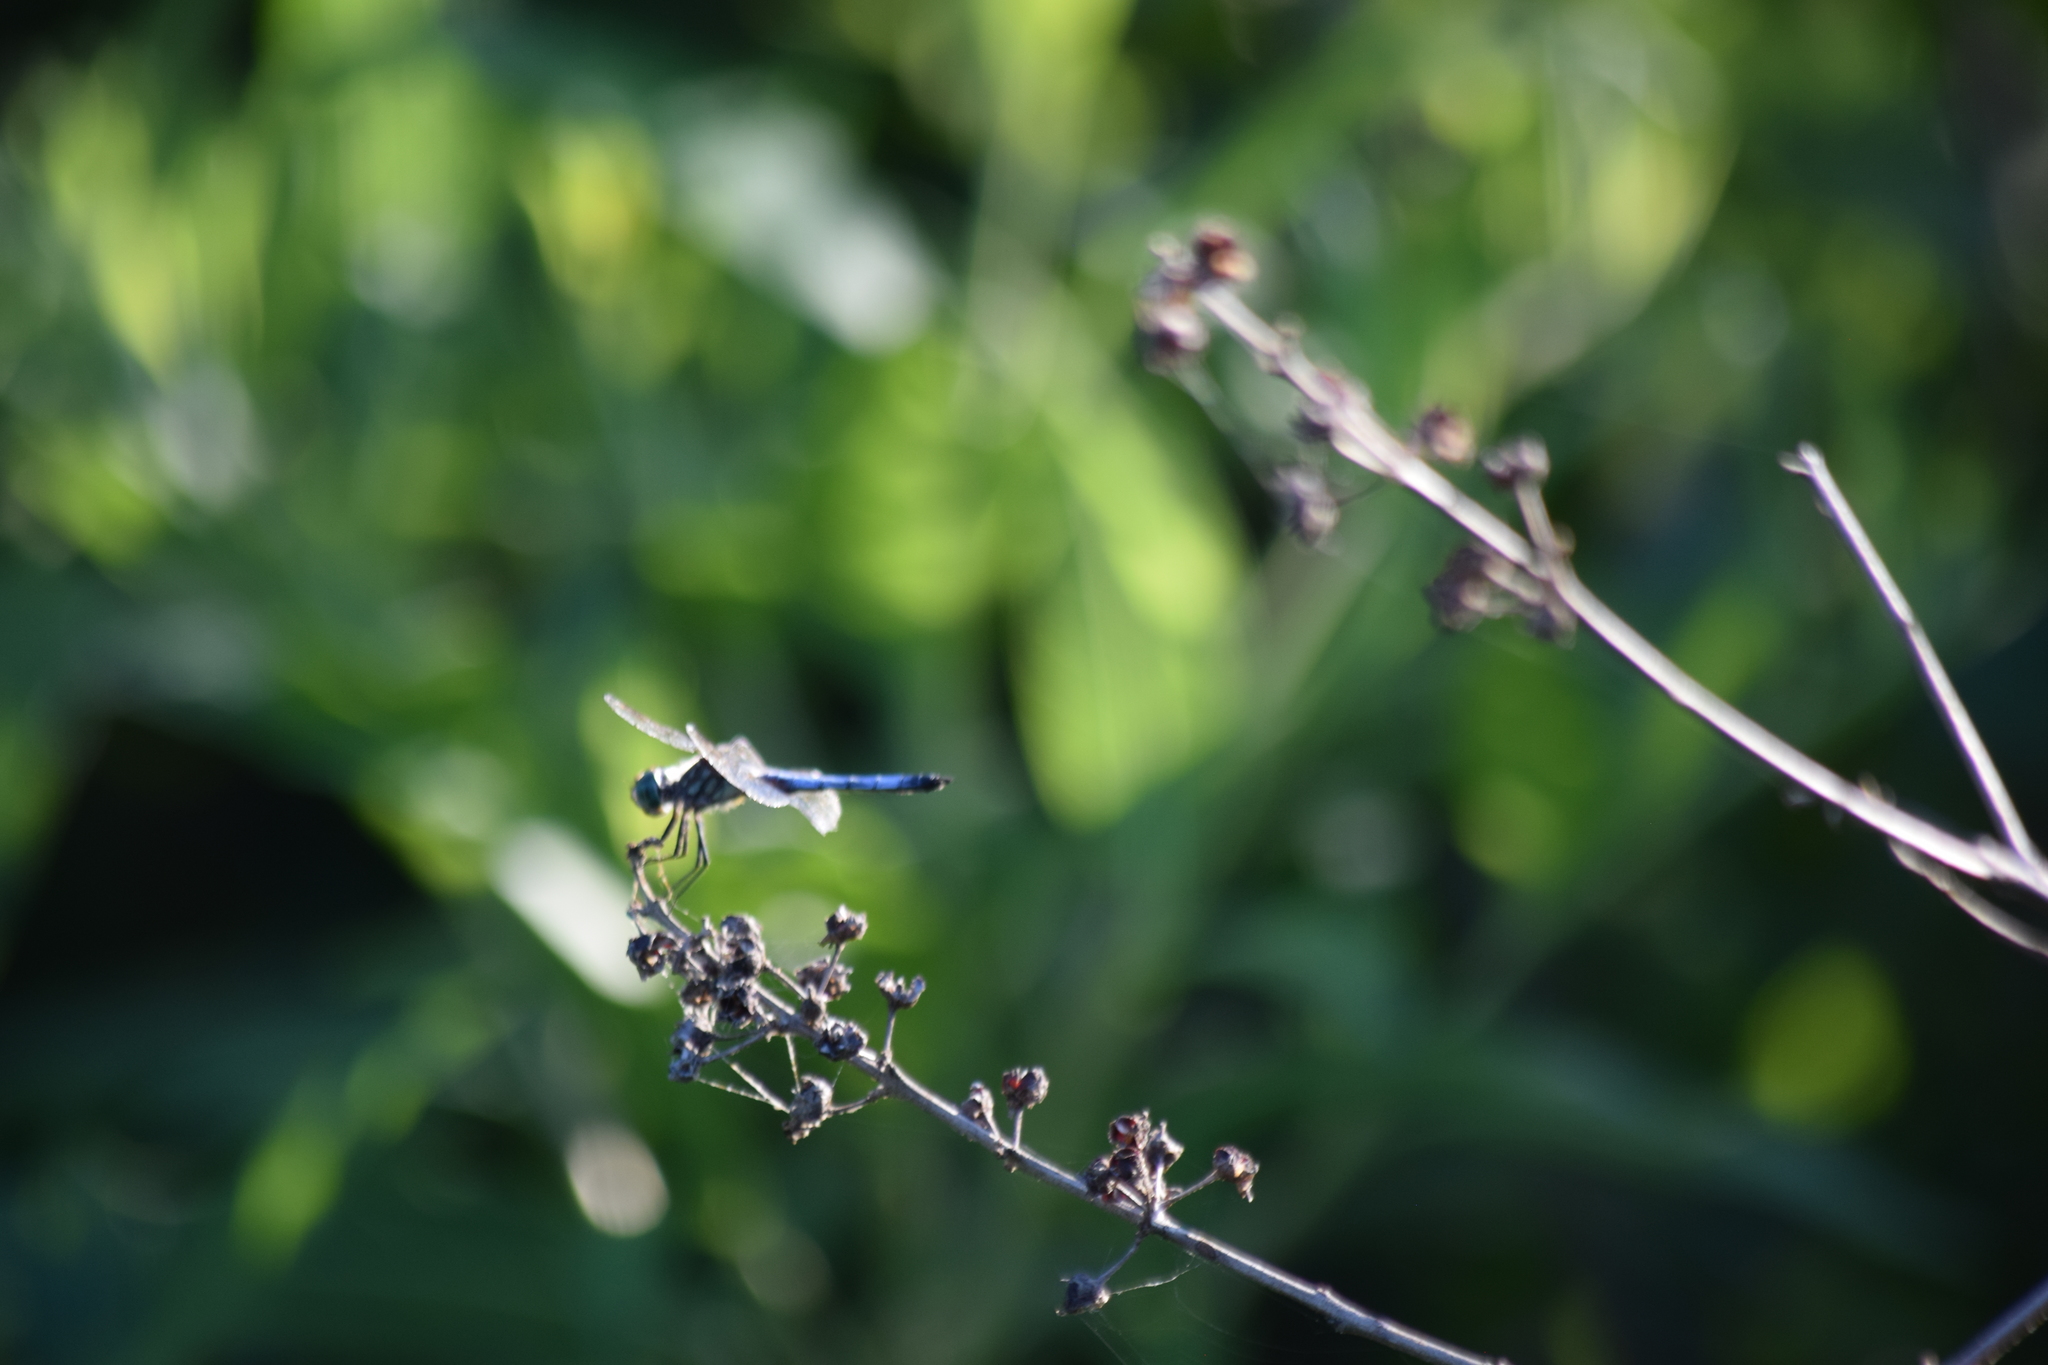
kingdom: Animalia
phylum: Arthropoda
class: Insecta
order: Odonata
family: Libellulidae
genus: Pachydiplax
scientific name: Pachydiplax longipennis
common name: Blue dasher
